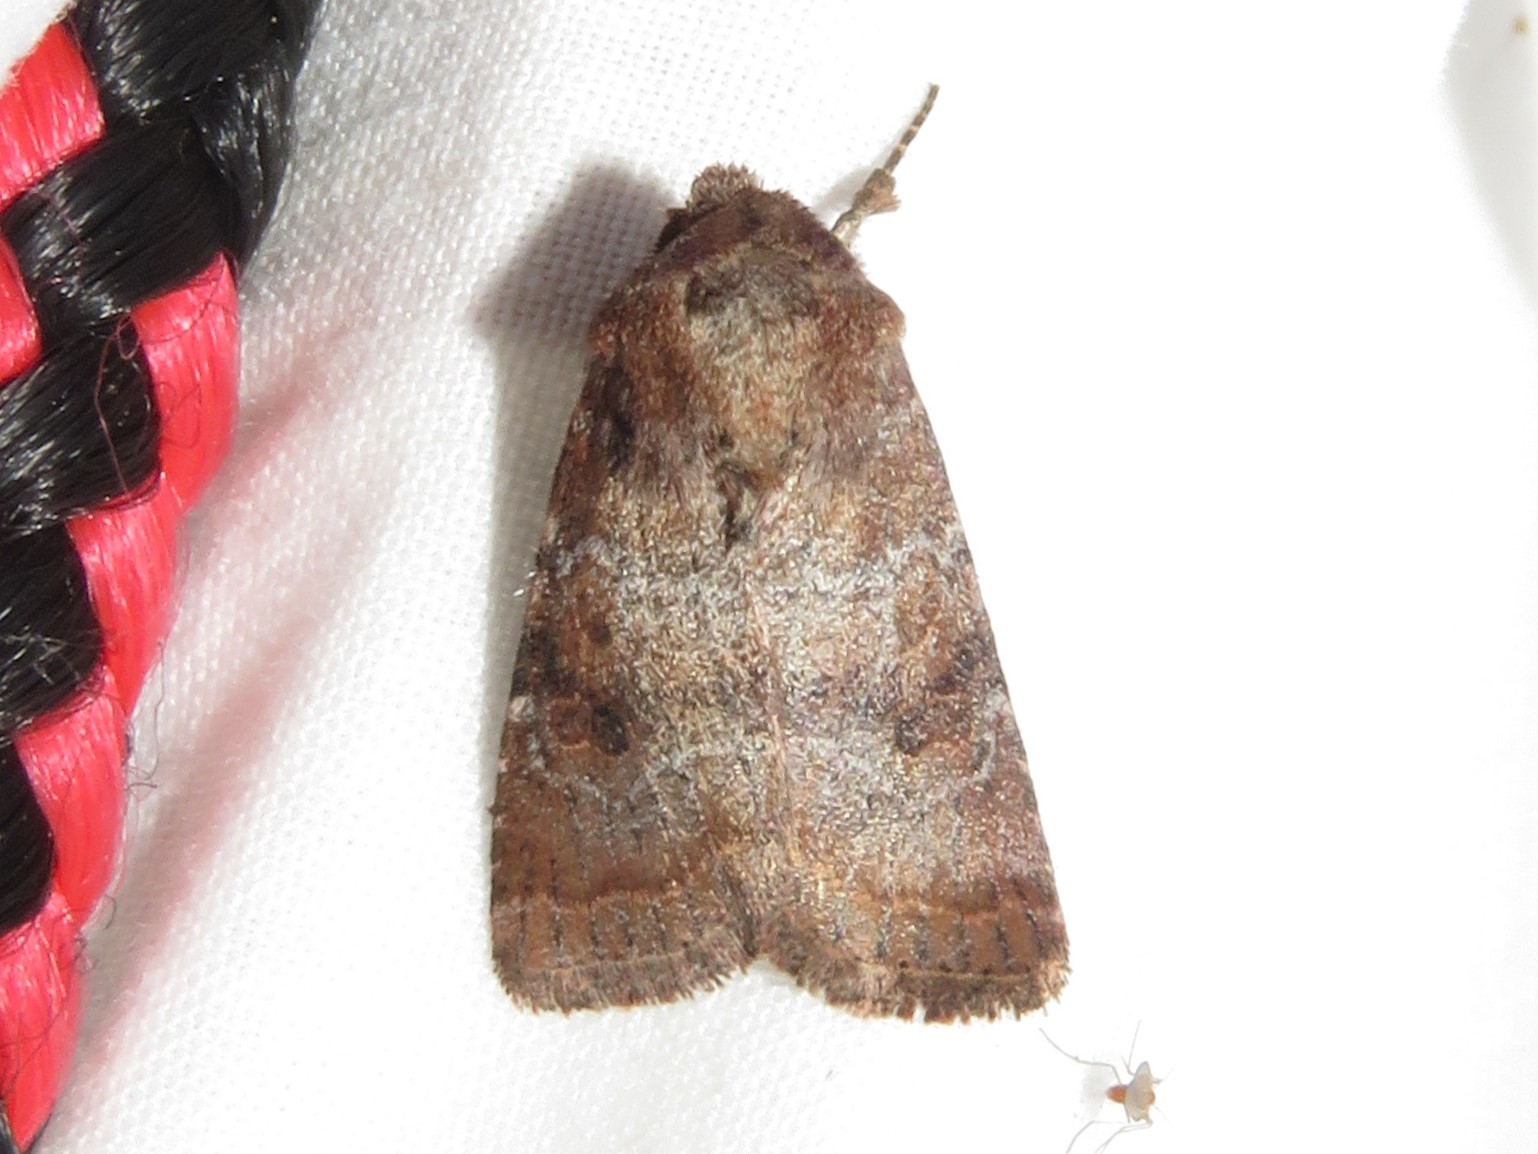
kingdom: Animalia
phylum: Arthropoda
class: Insecta
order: Lepidoptera
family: Noctuidae
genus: Crocigrapha
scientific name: Crocigrapha normani
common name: Norman's quaker
